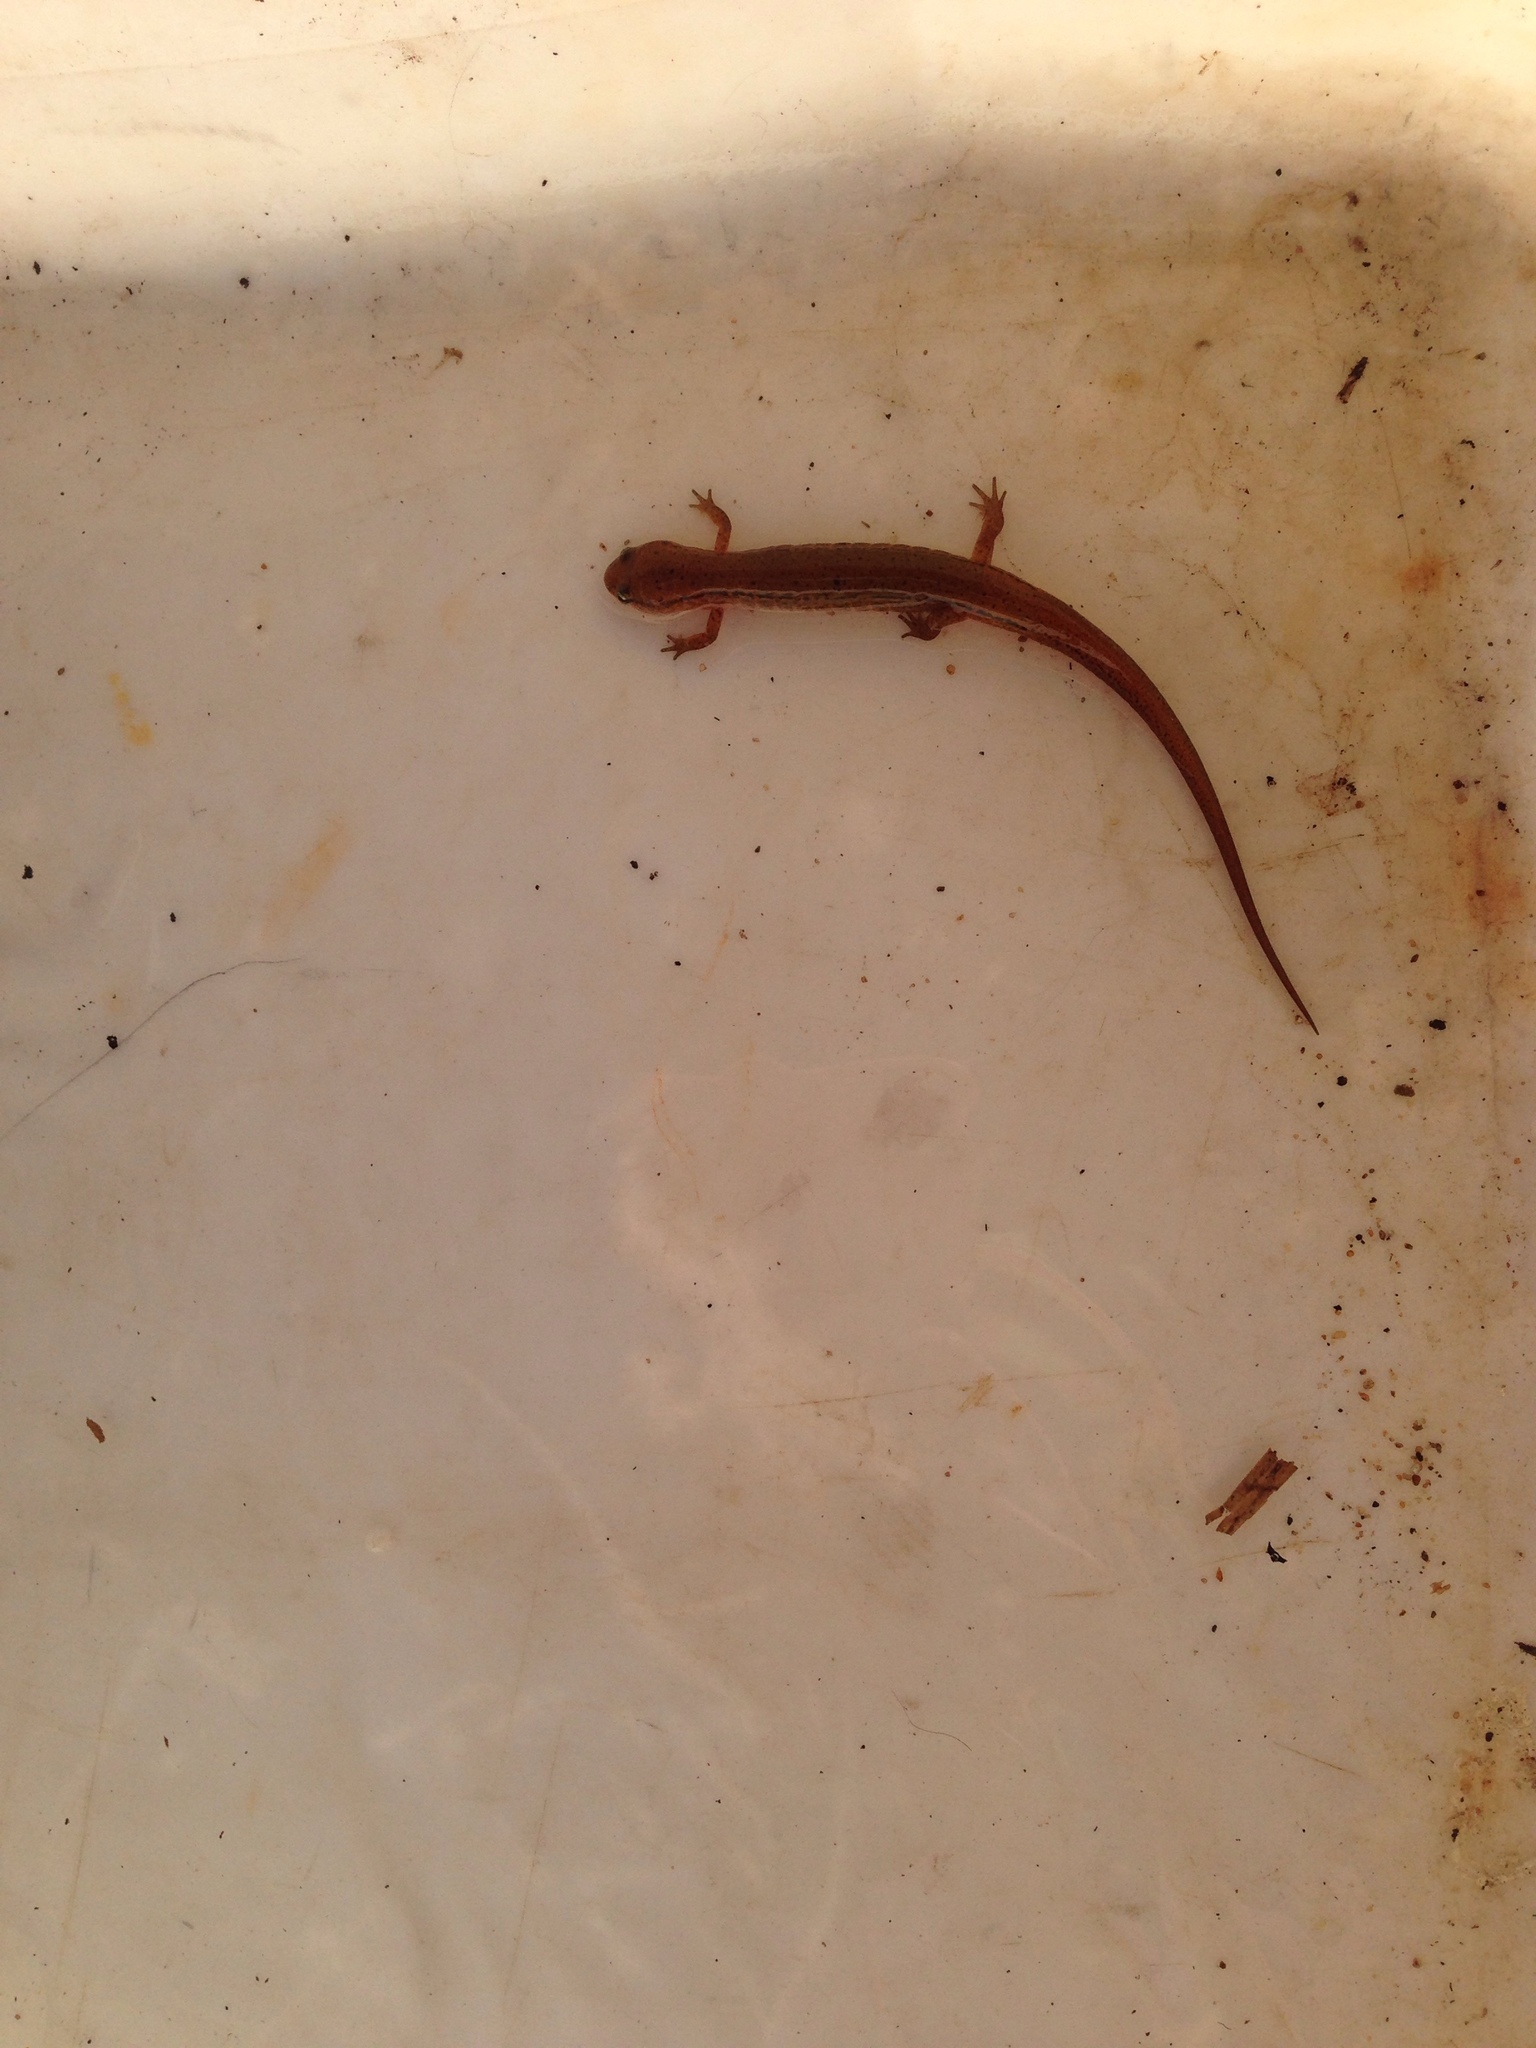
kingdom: Animalia
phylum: Chordata
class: Amphibia
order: Caudata
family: Plethodontidae
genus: Eurycea
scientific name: Eurycea wilderae
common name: Blue ridge two-lined salamander
